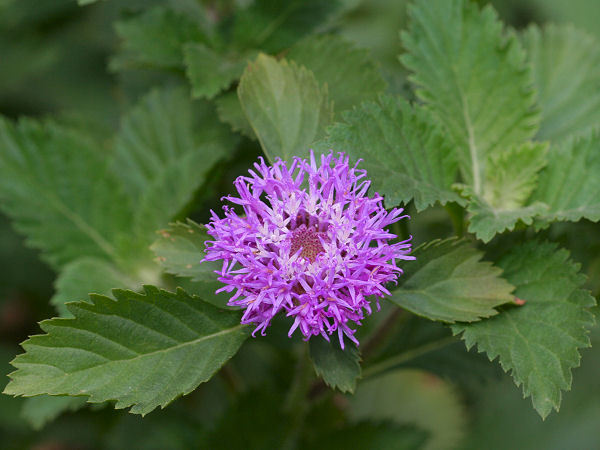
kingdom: Plantae
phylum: Tracheophyta
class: Magnoliopsida
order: Asterales
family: Asteraceae
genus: Centratherum
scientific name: Centratherum punctatum
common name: Larkdaisy
